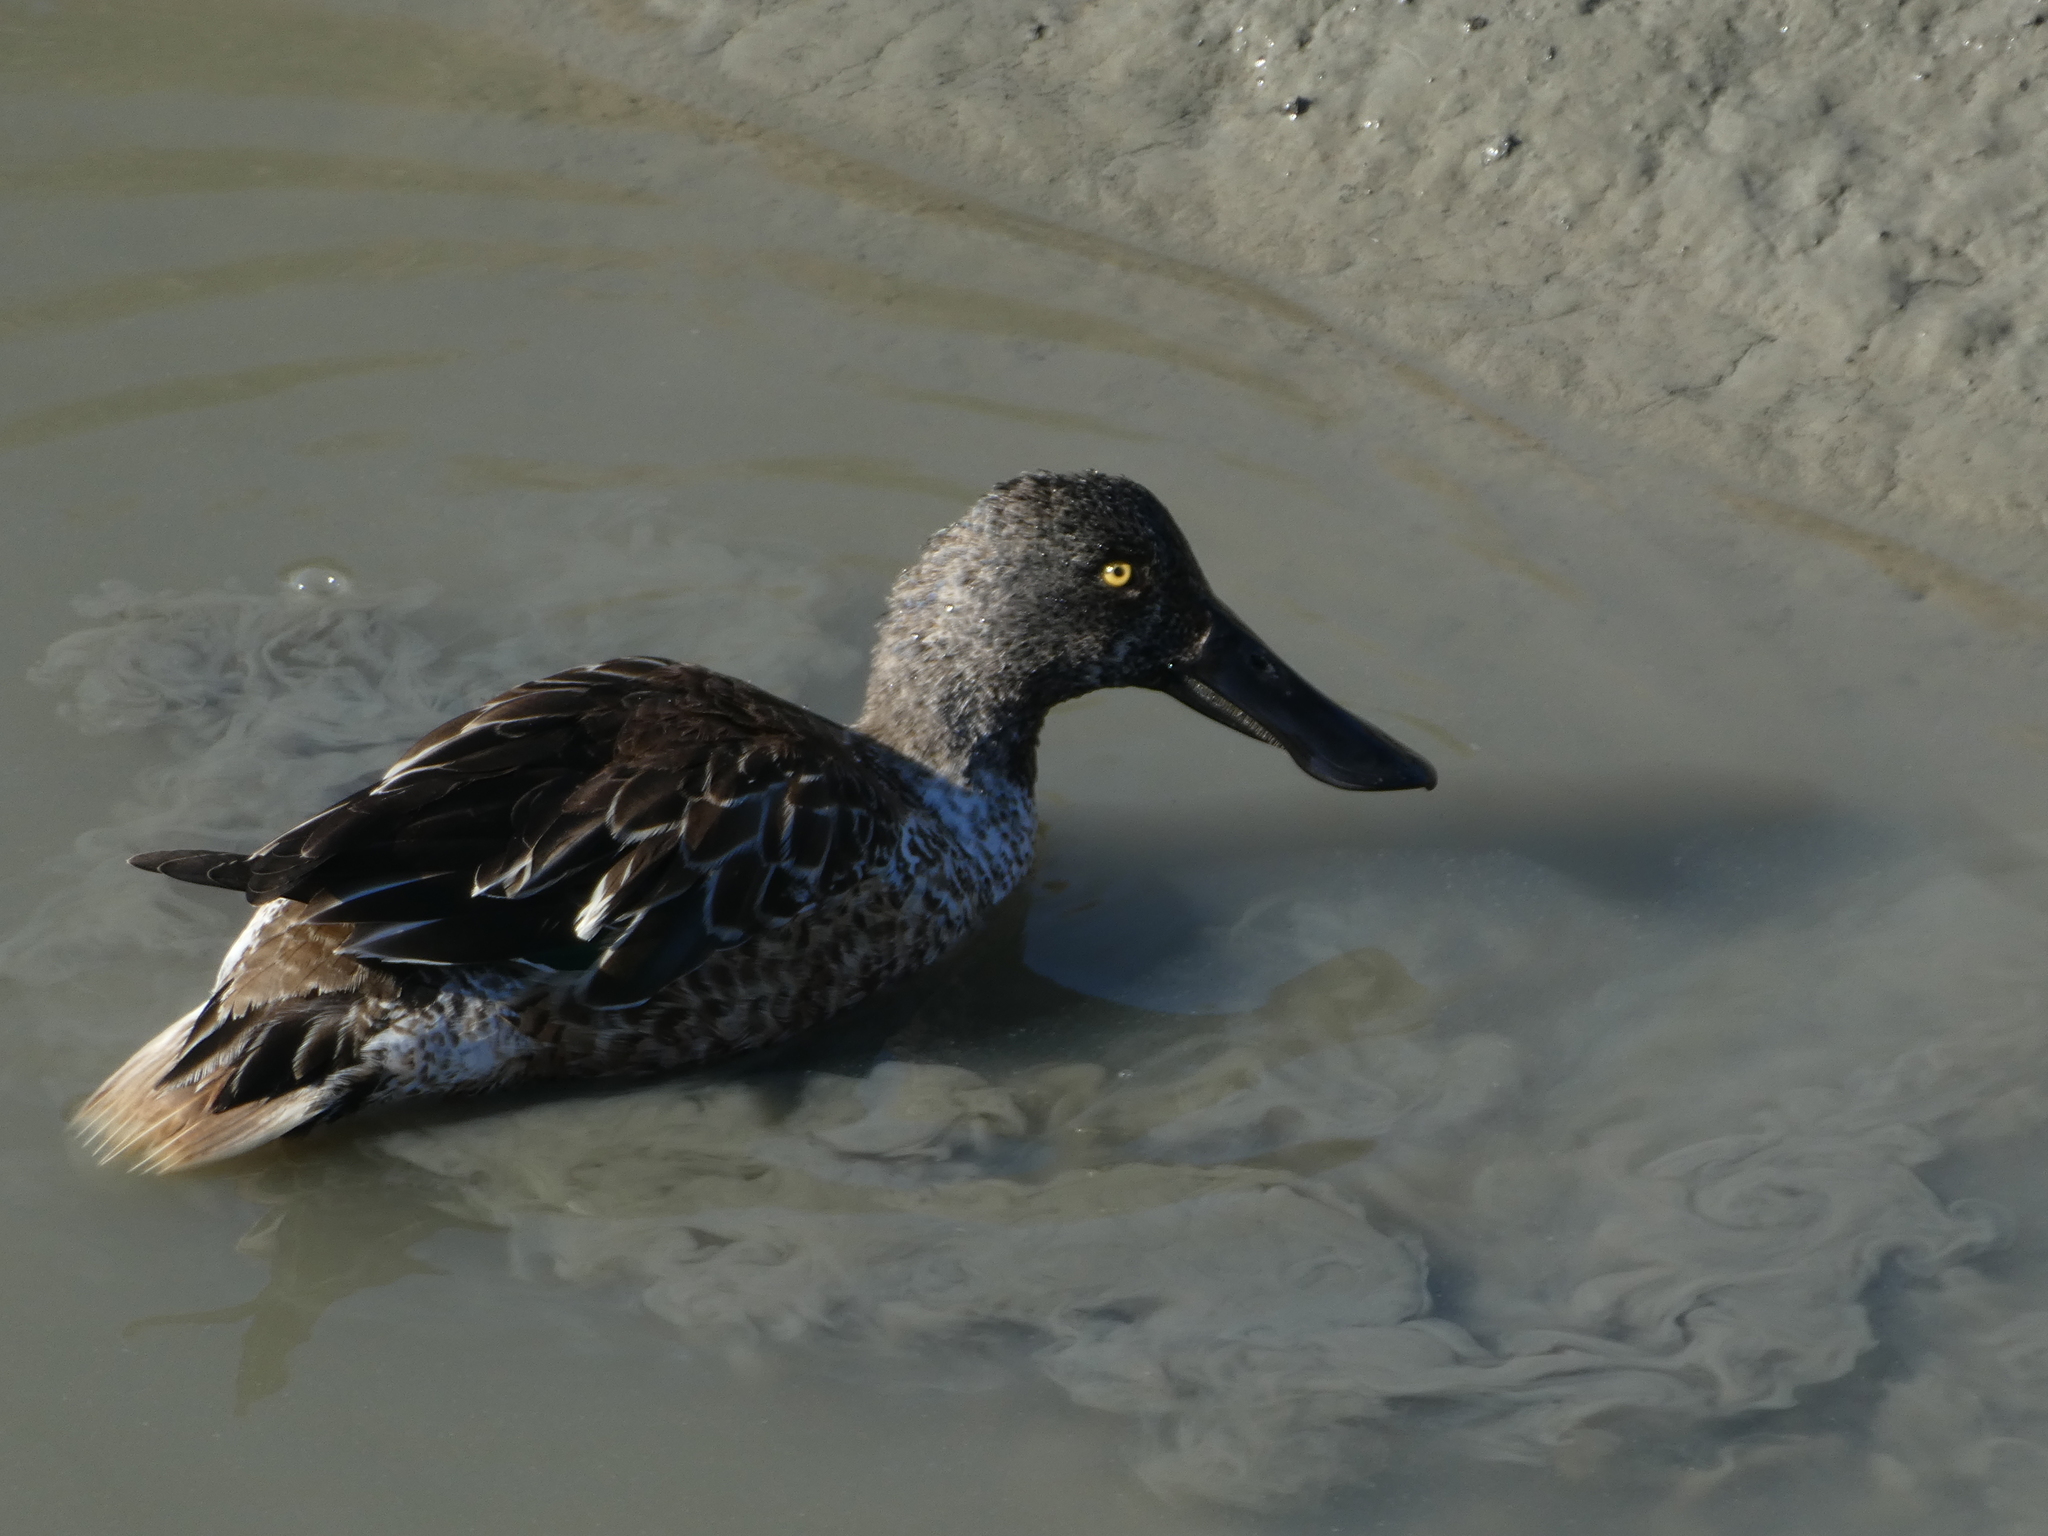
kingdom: Animalia
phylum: Chordata
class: Aves
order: Anseriformes
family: Anatidae
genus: Spatula
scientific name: Spatula clypeata
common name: Northern shoveler
